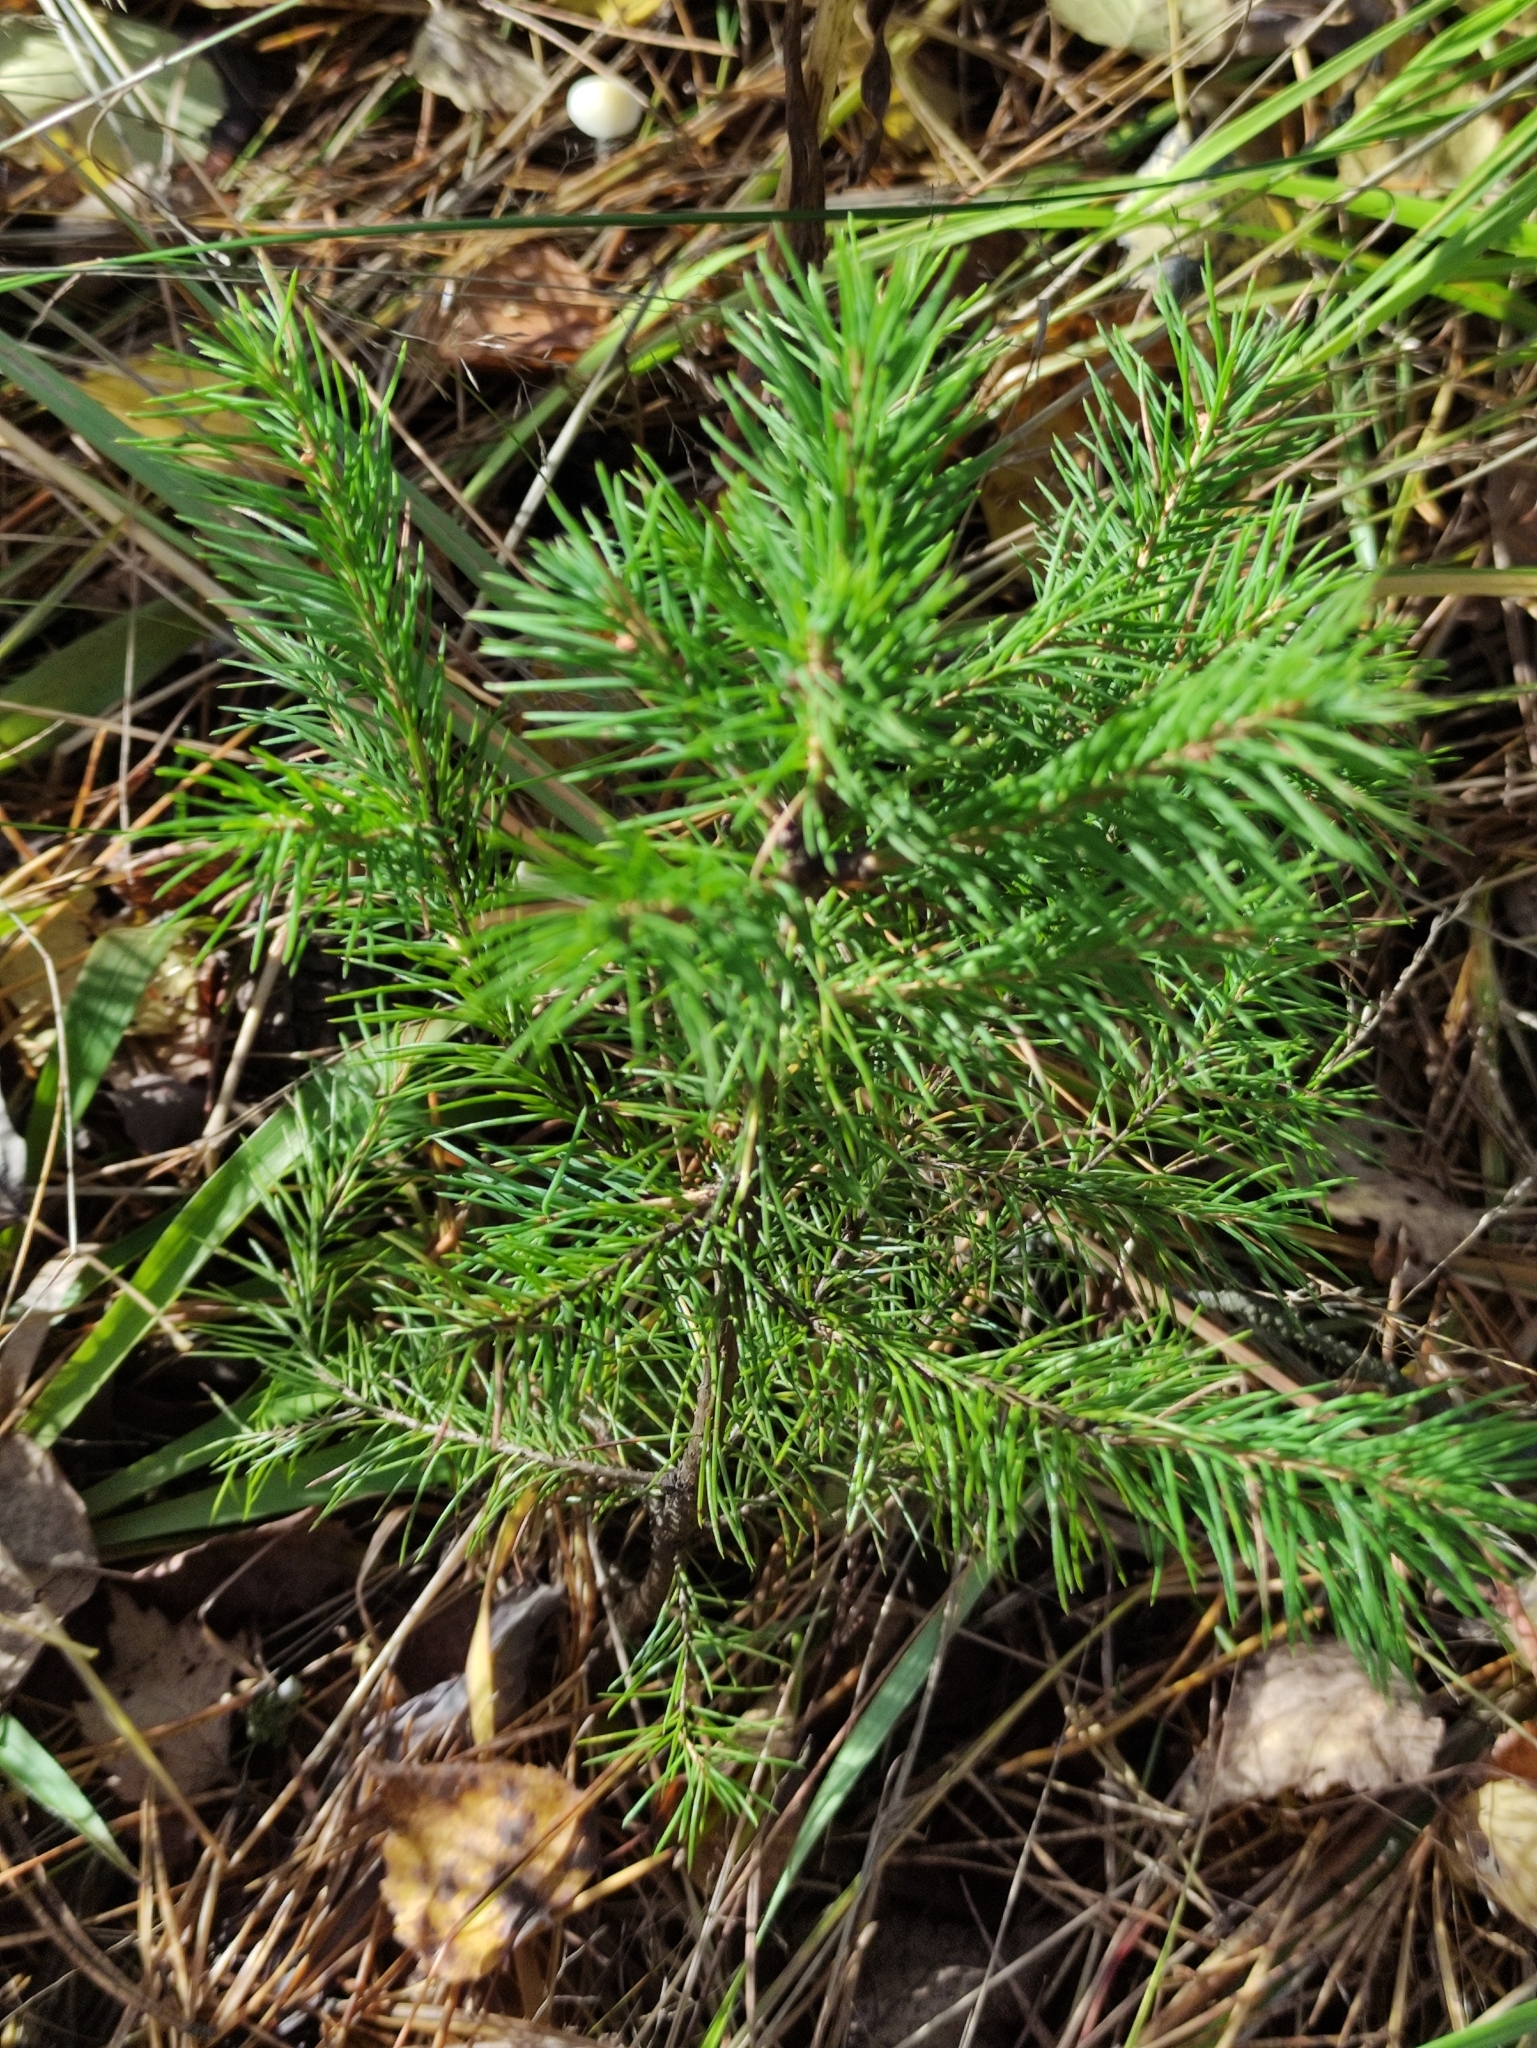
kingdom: Plantae
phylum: Tracheophyta
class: Pinopsida
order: Pinales
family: Pinaceae
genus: Picea
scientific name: Picea abies
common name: Norway spruce
